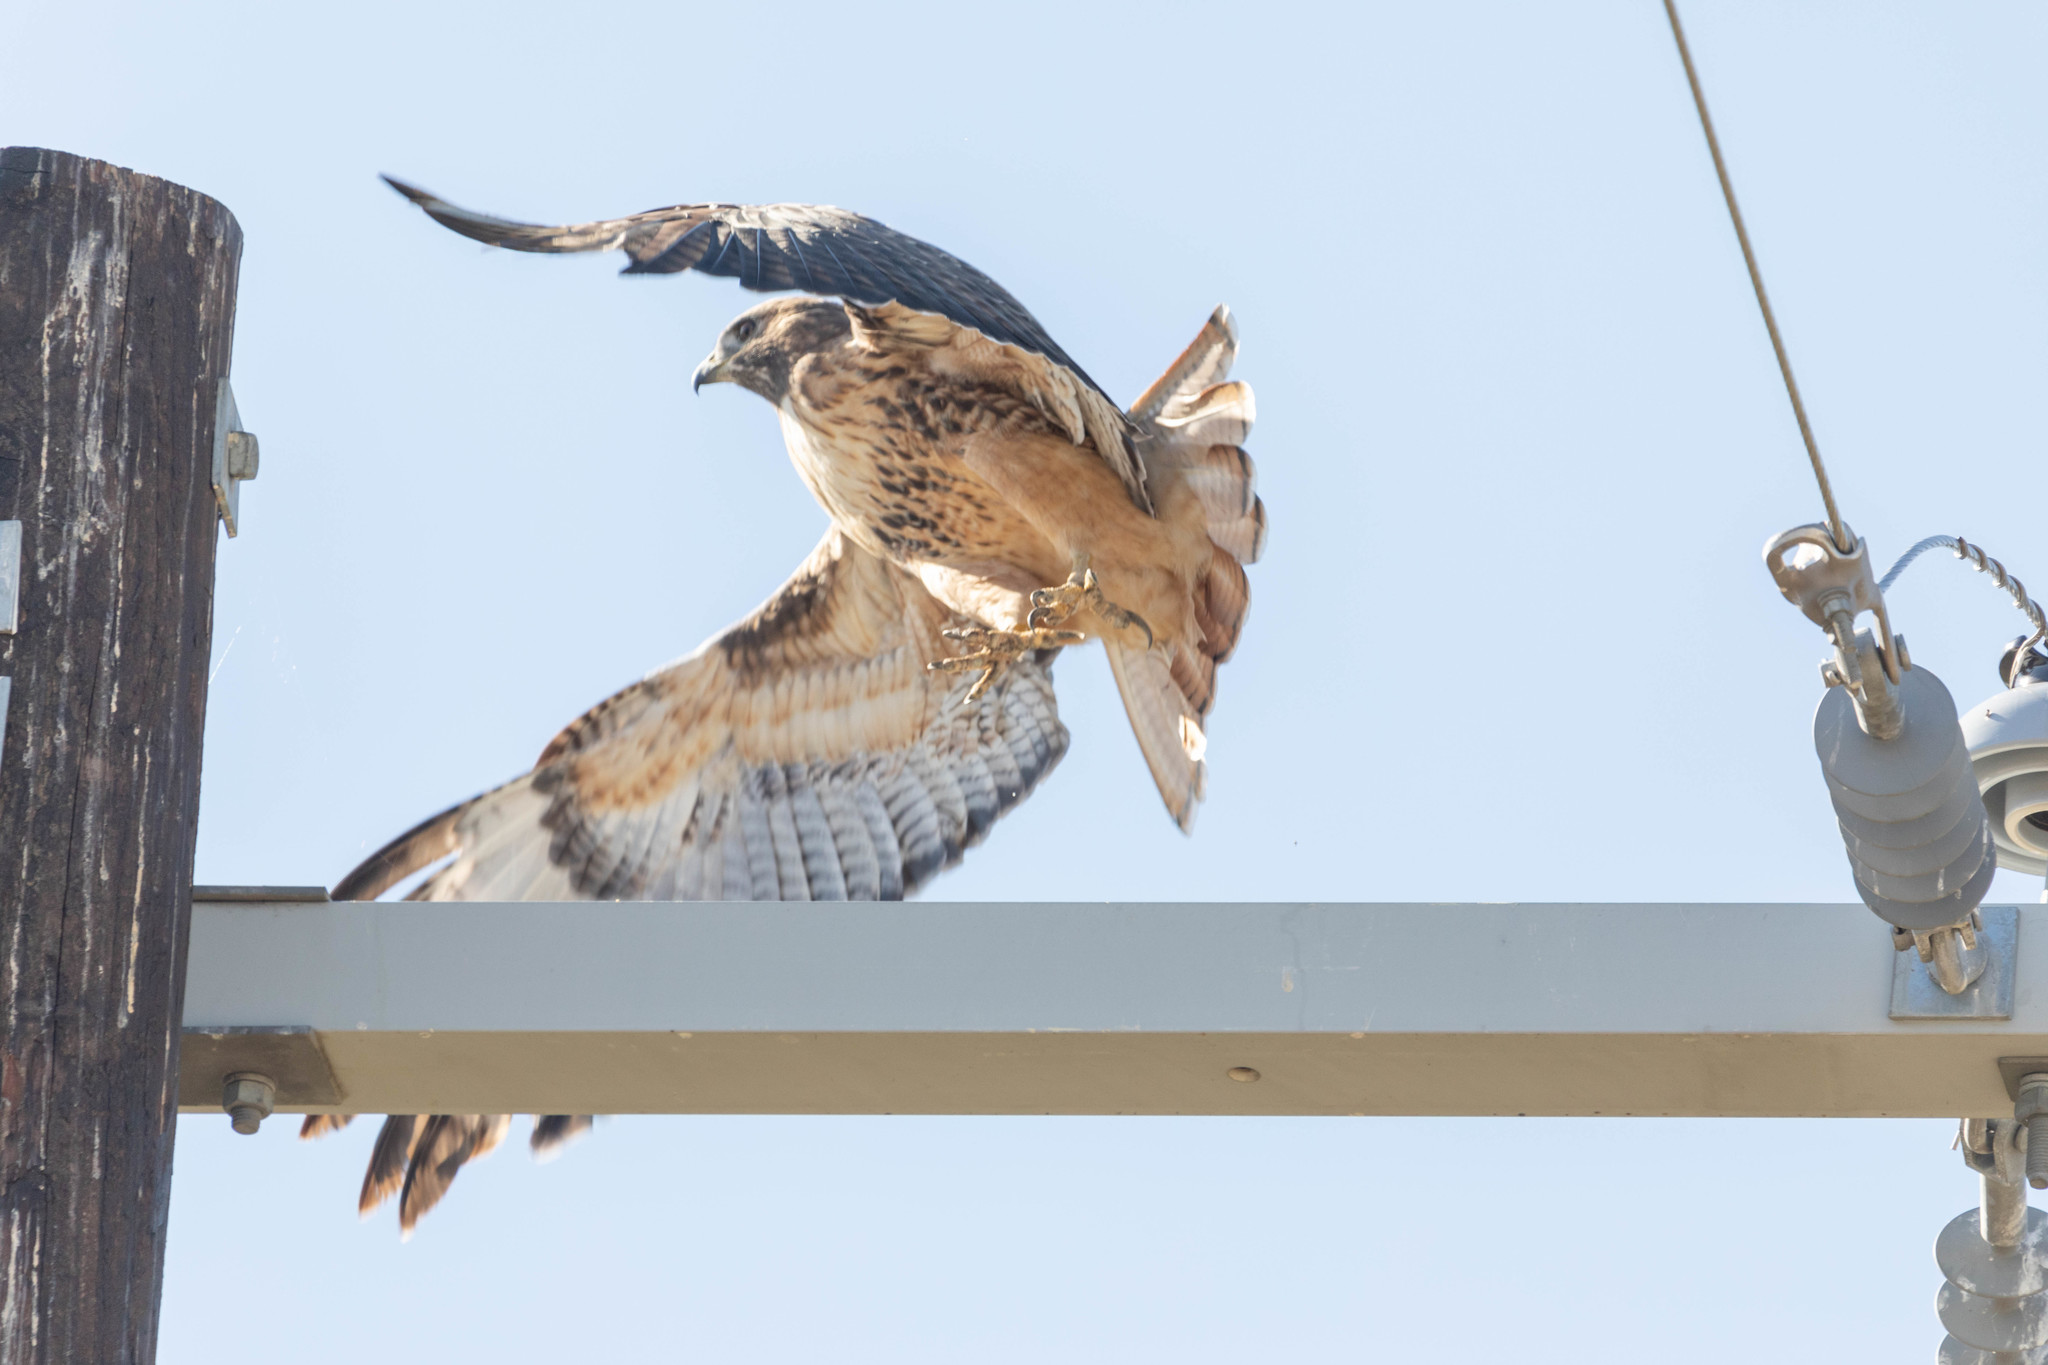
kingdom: Animalia
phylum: Chordata
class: Aves
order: Accipitriformes
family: Accipitridae
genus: Buteo
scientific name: Buteo jamaicensis
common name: Red-tailed hawk
